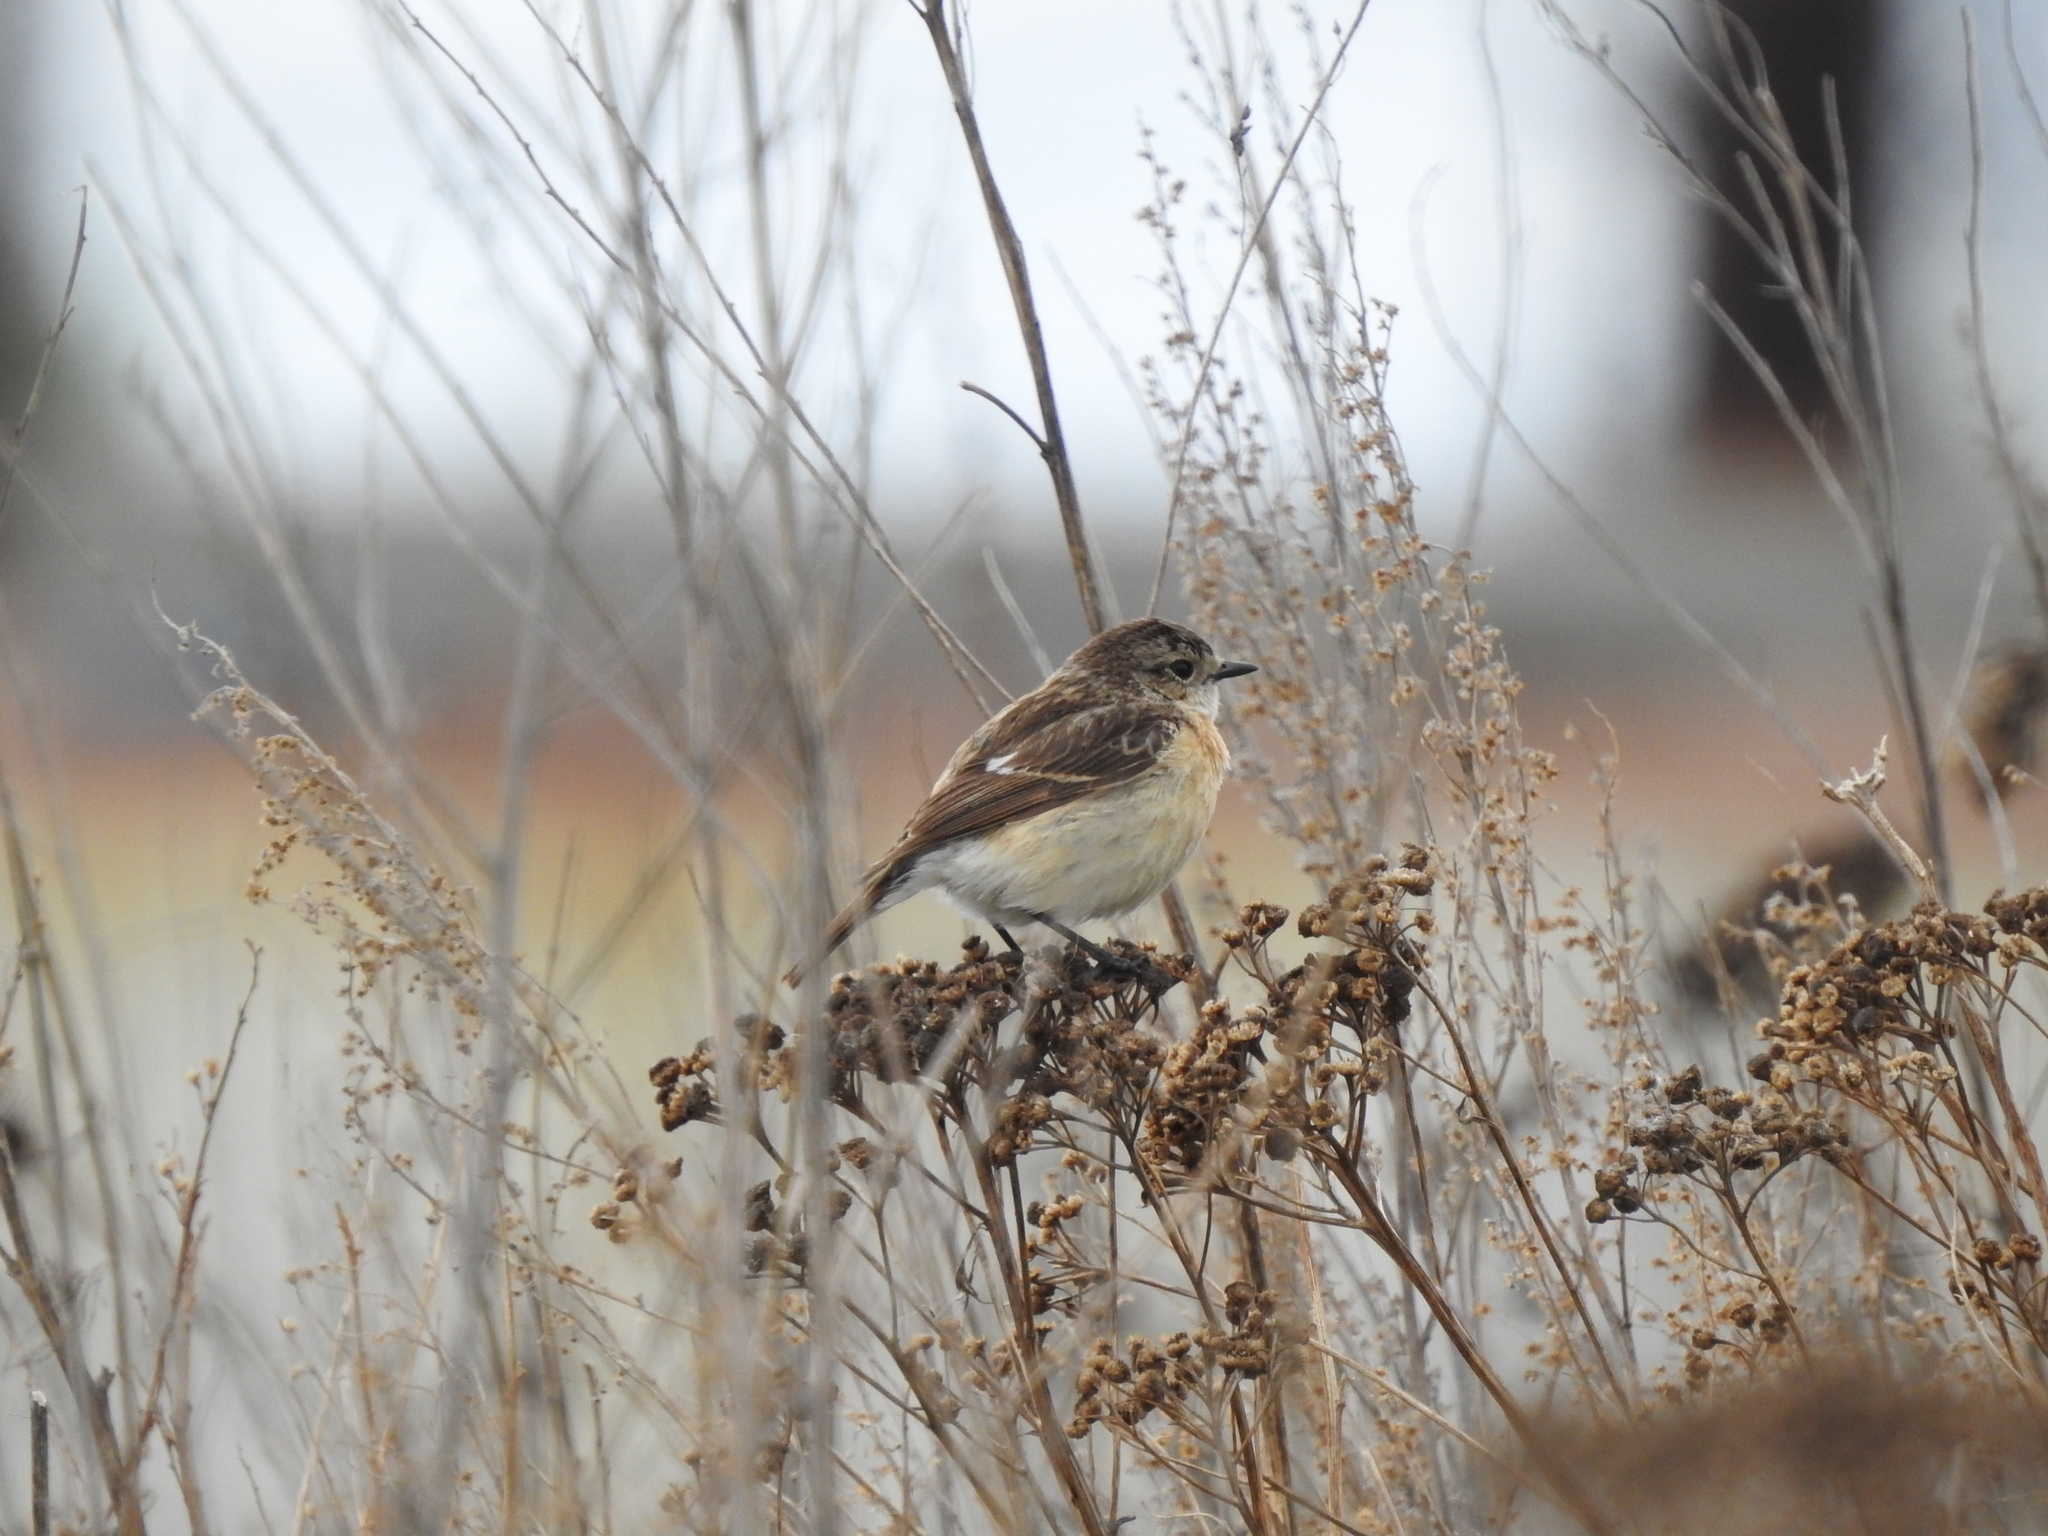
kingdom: Animalia
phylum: Chordata
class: Aves
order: Passeriformes
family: Muscicapidae
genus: Saxicola
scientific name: Saxicola maurus
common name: Siberian stonechat
